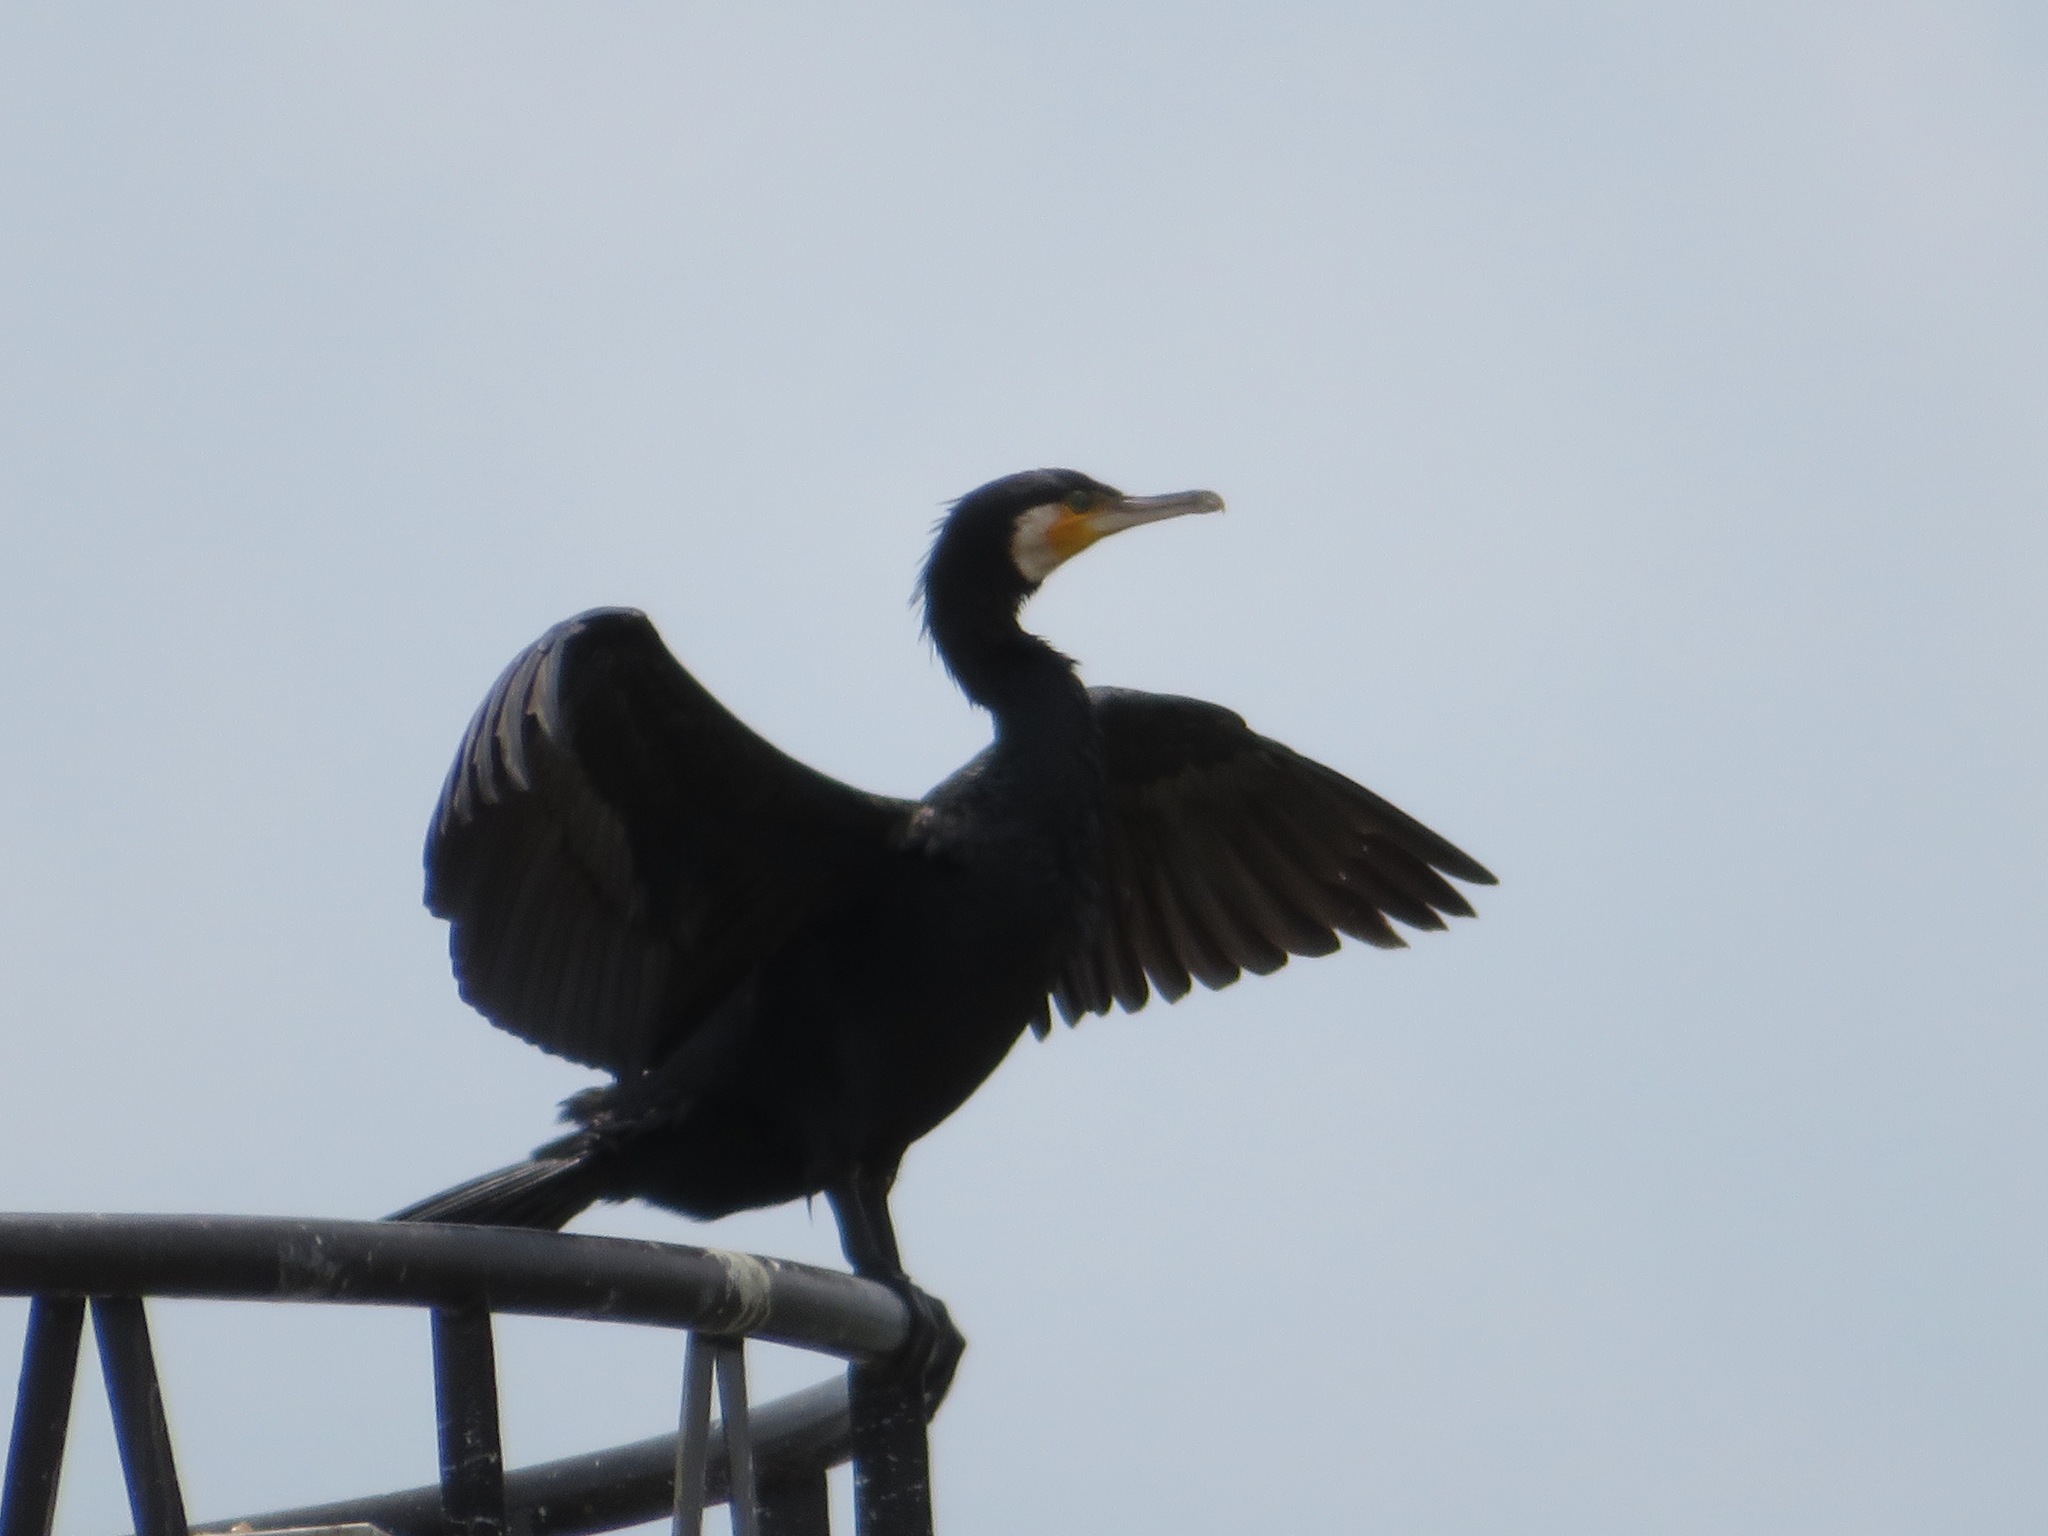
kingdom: Animalia
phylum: Chordata
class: Aves
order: Suliformes
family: Phalacrocoracidae
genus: Phalacrocorax
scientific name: Phalacrocorax carbo
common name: Great cormorant
